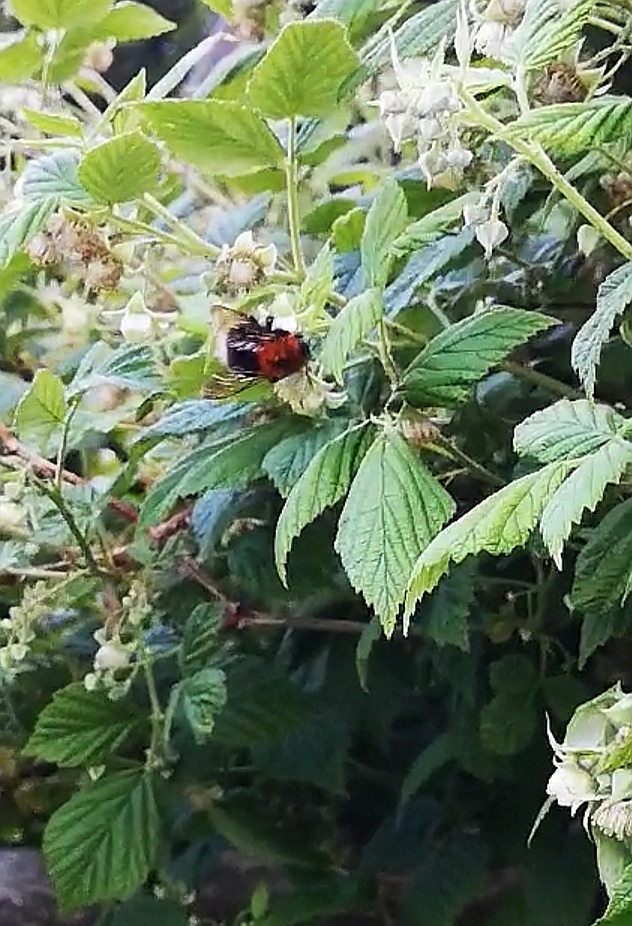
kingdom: Animalia
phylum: Arthropoda
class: Insecta
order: Hymenoptera
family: Apidae
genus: Bombus
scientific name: Bombus hypnorum
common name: New garden bumblebee
